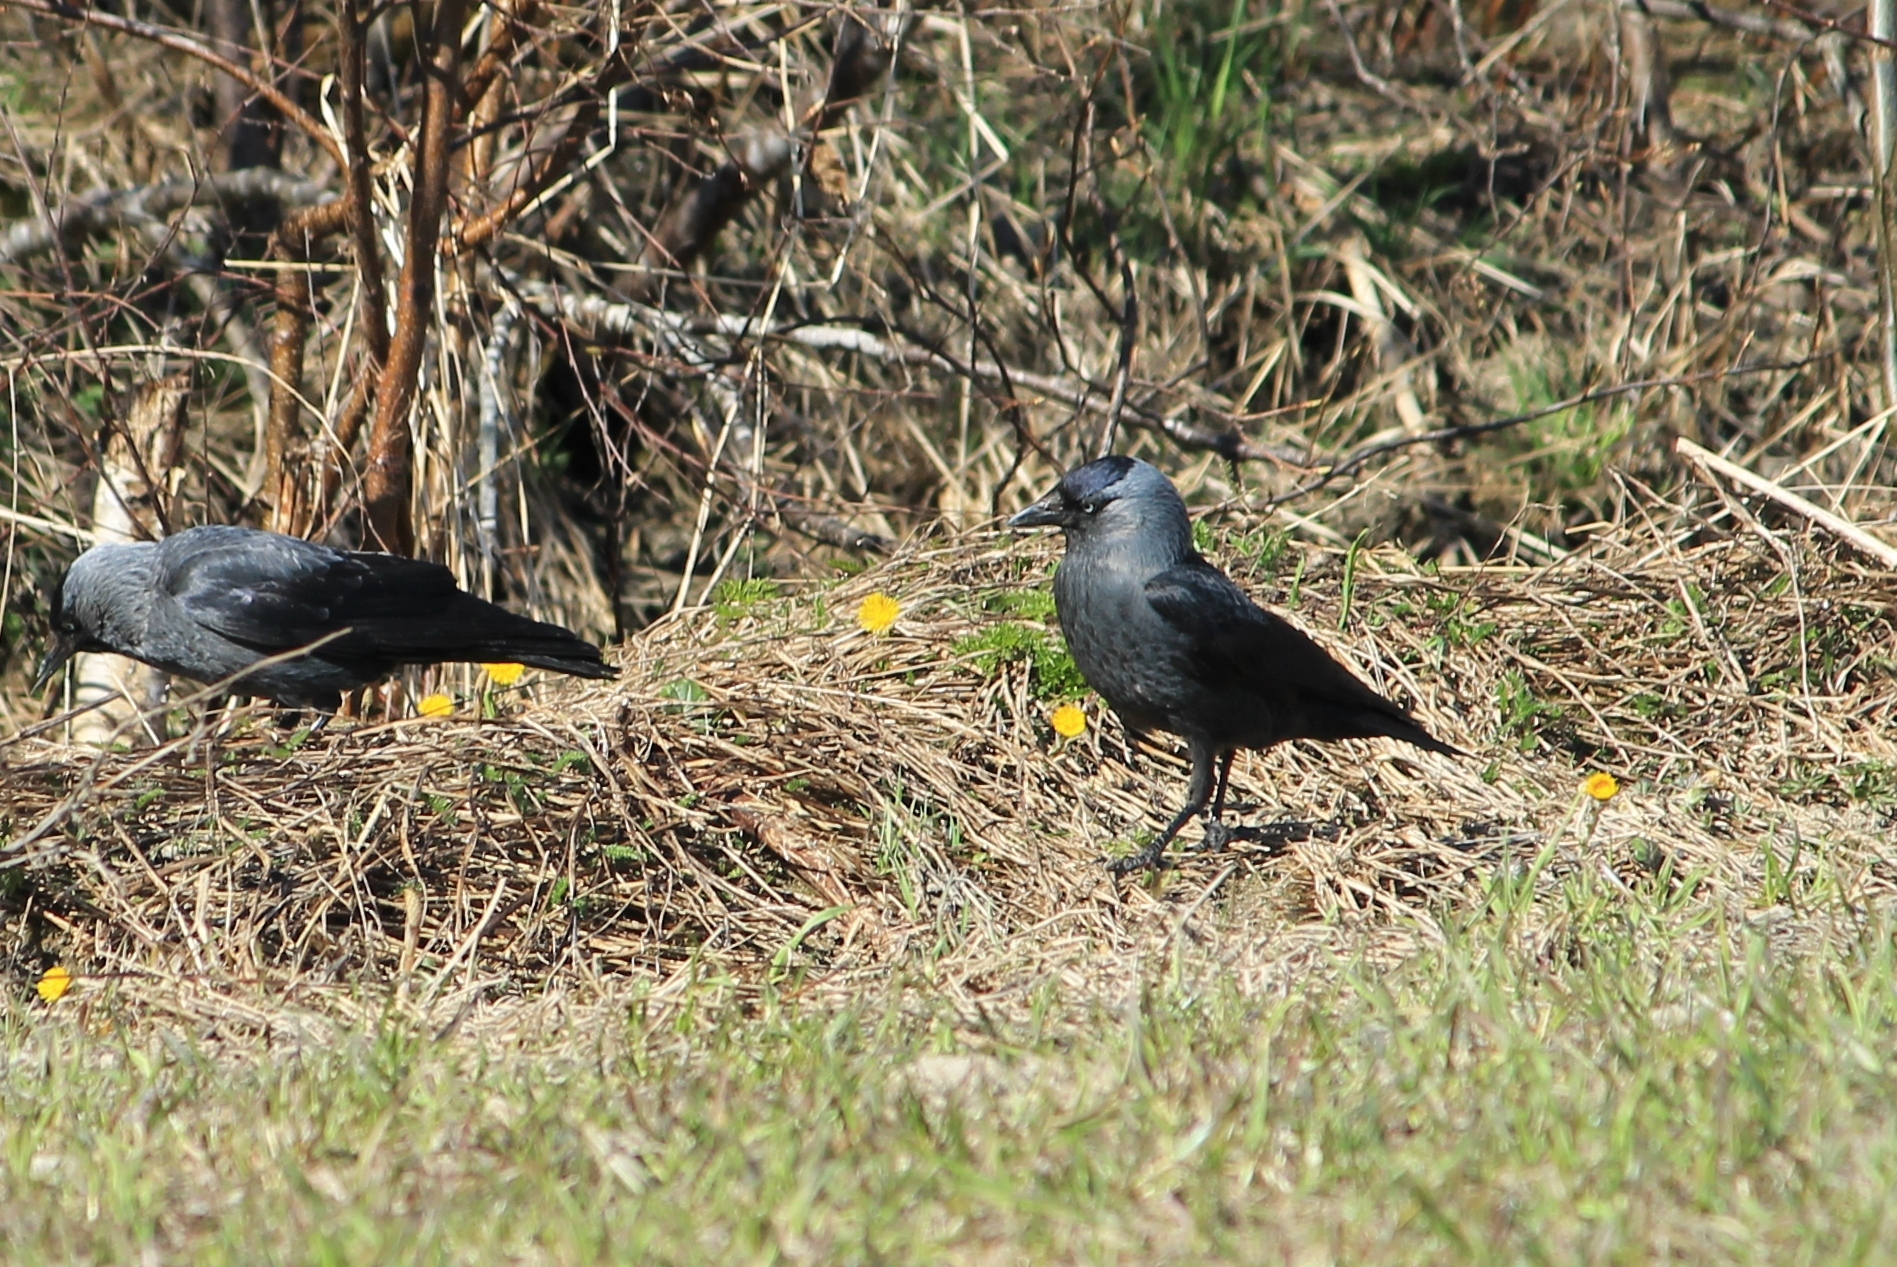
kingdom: Animalia
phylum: Chordata
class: Aves
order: Passeriformes
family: Corvidae
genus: Coloeus
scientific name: Coloeus monedula
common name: Western jackdaw
